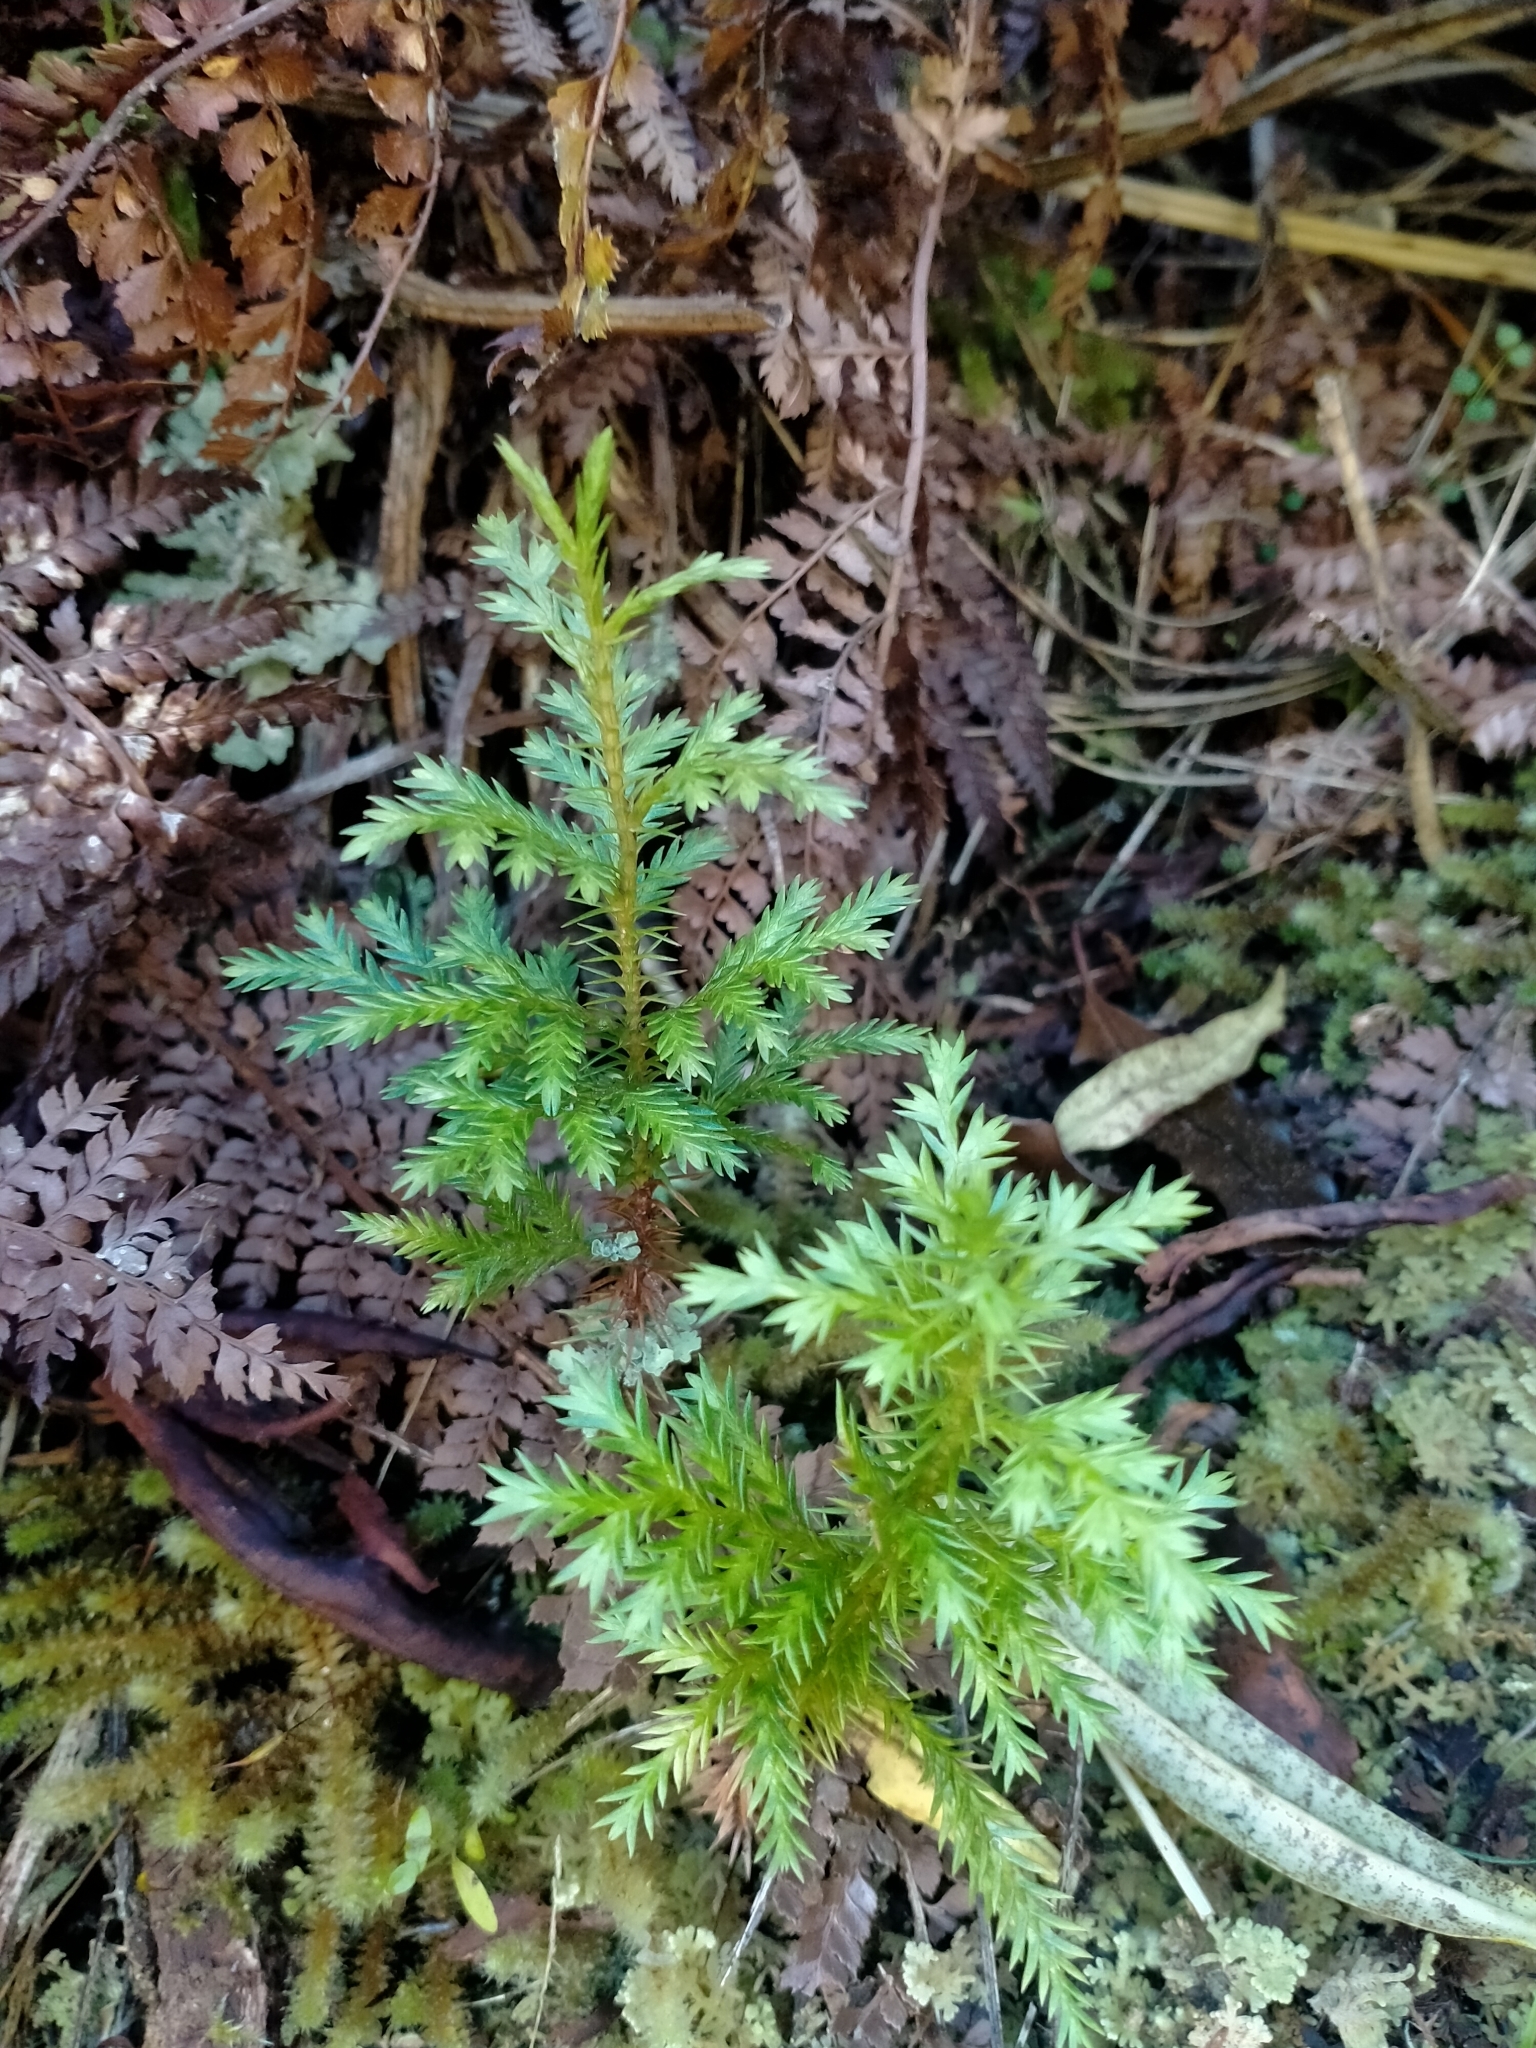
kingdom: Plantae
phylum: Tracheophyta
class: Pinopsida
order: Pinales
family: Cupressaceae
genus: Libocedrus
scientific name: Libocedrus bidwillii
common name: Cedar
